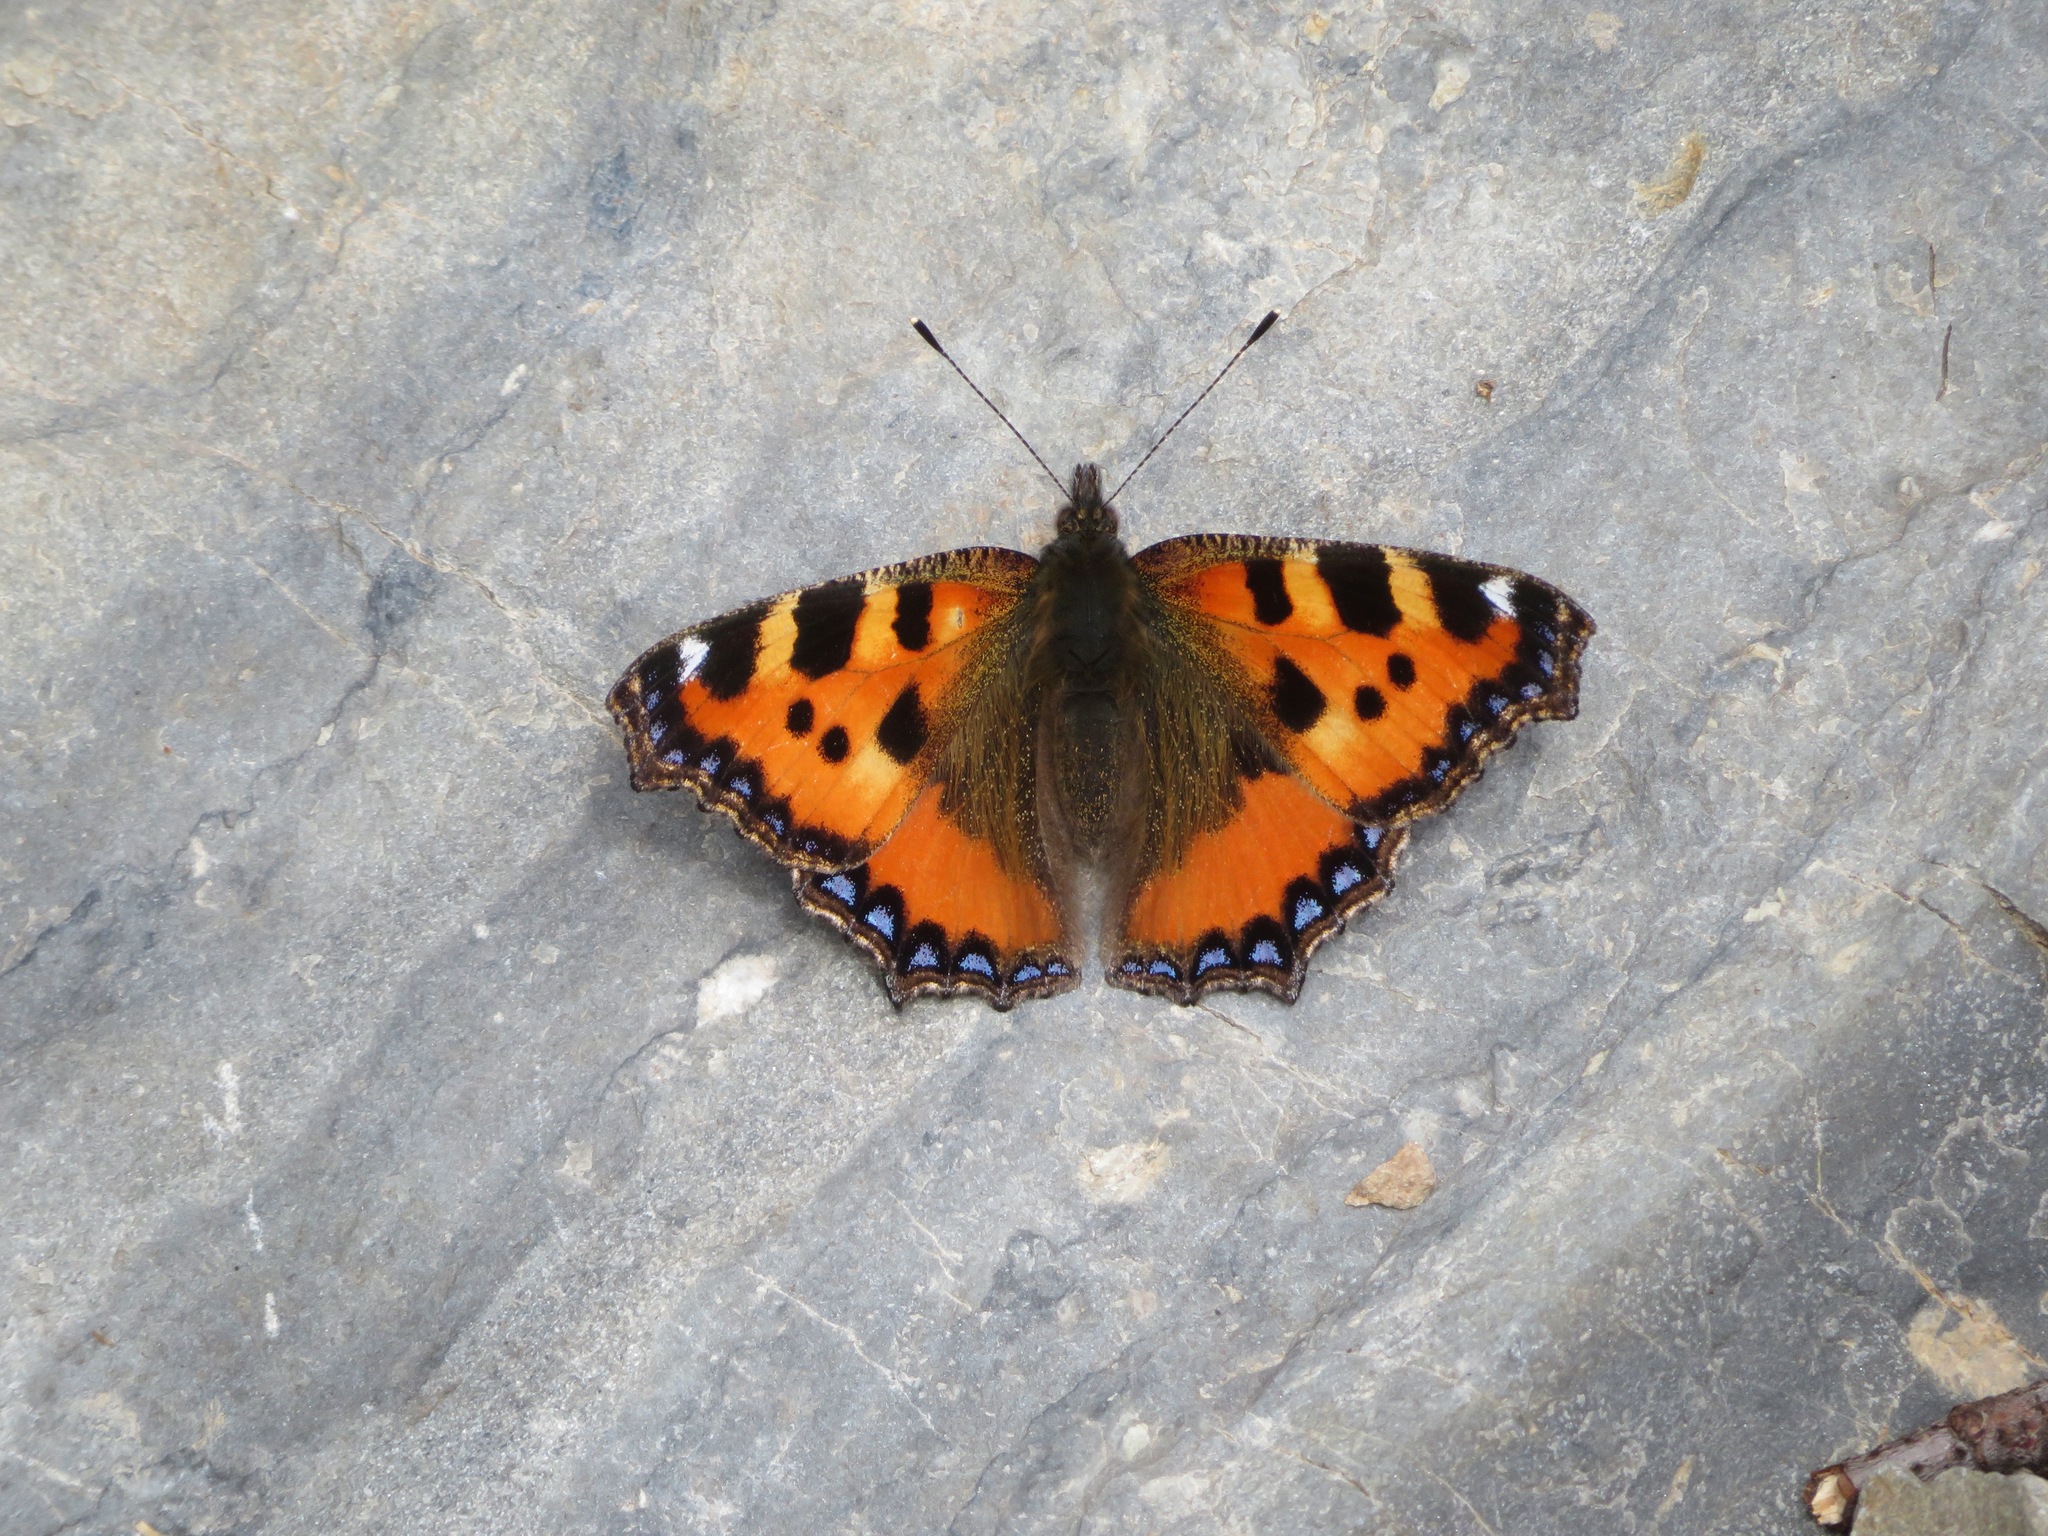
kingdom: Animalia
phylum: Arthropoda
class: Insecta
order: Lepidoptera
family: Nymphalidae
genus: Aglais
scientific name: Aglais urticae
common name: Small tortoiseshell
